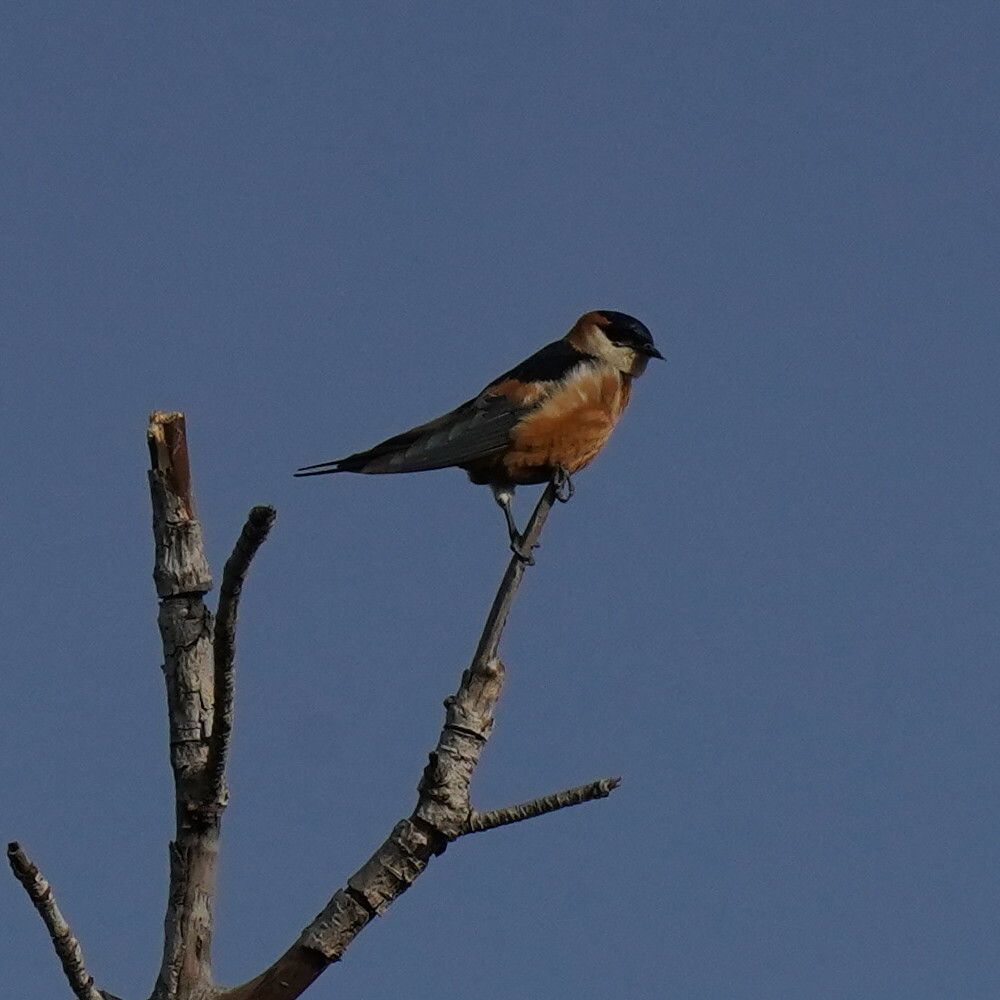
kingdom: Animalia
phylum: Chordata
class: Aves
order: Passeriformes
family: Hirundinidae
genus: Cecropis
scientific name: Cecropis senegalensis
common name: Mosque swallow
